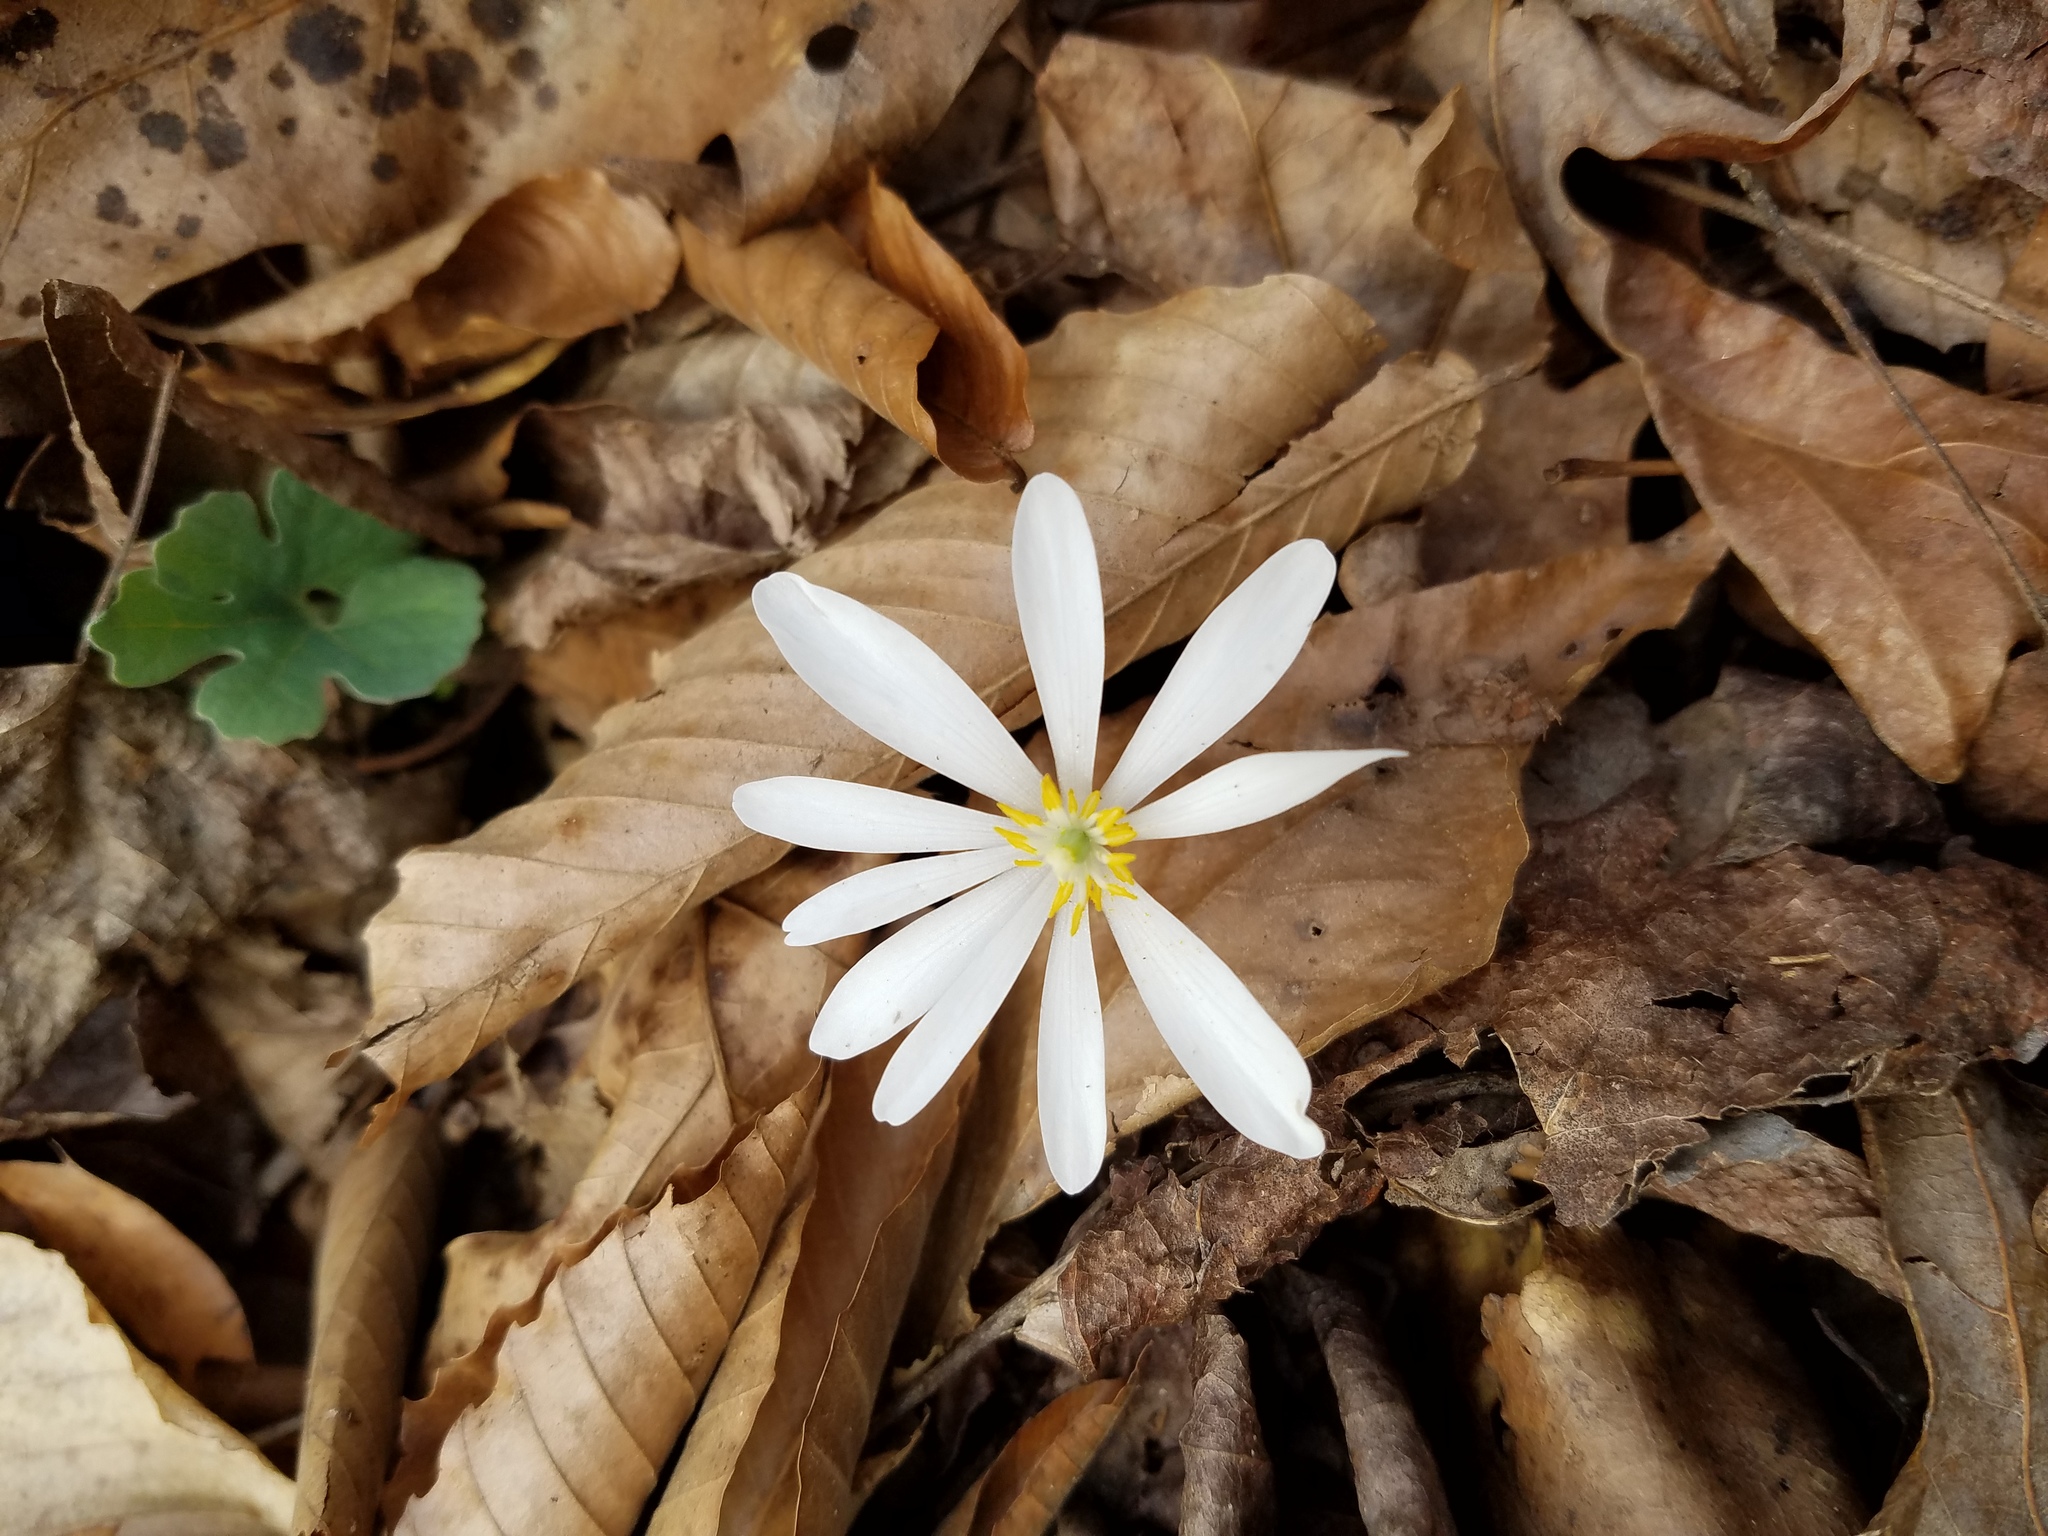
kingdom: Plantae
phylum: Tracheophyta
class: Magnoliopsida
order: Ranunculales
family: Papaveraceae
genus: Sanguinaria
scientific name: Sanguinaria canadensis
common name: Bloodroot
